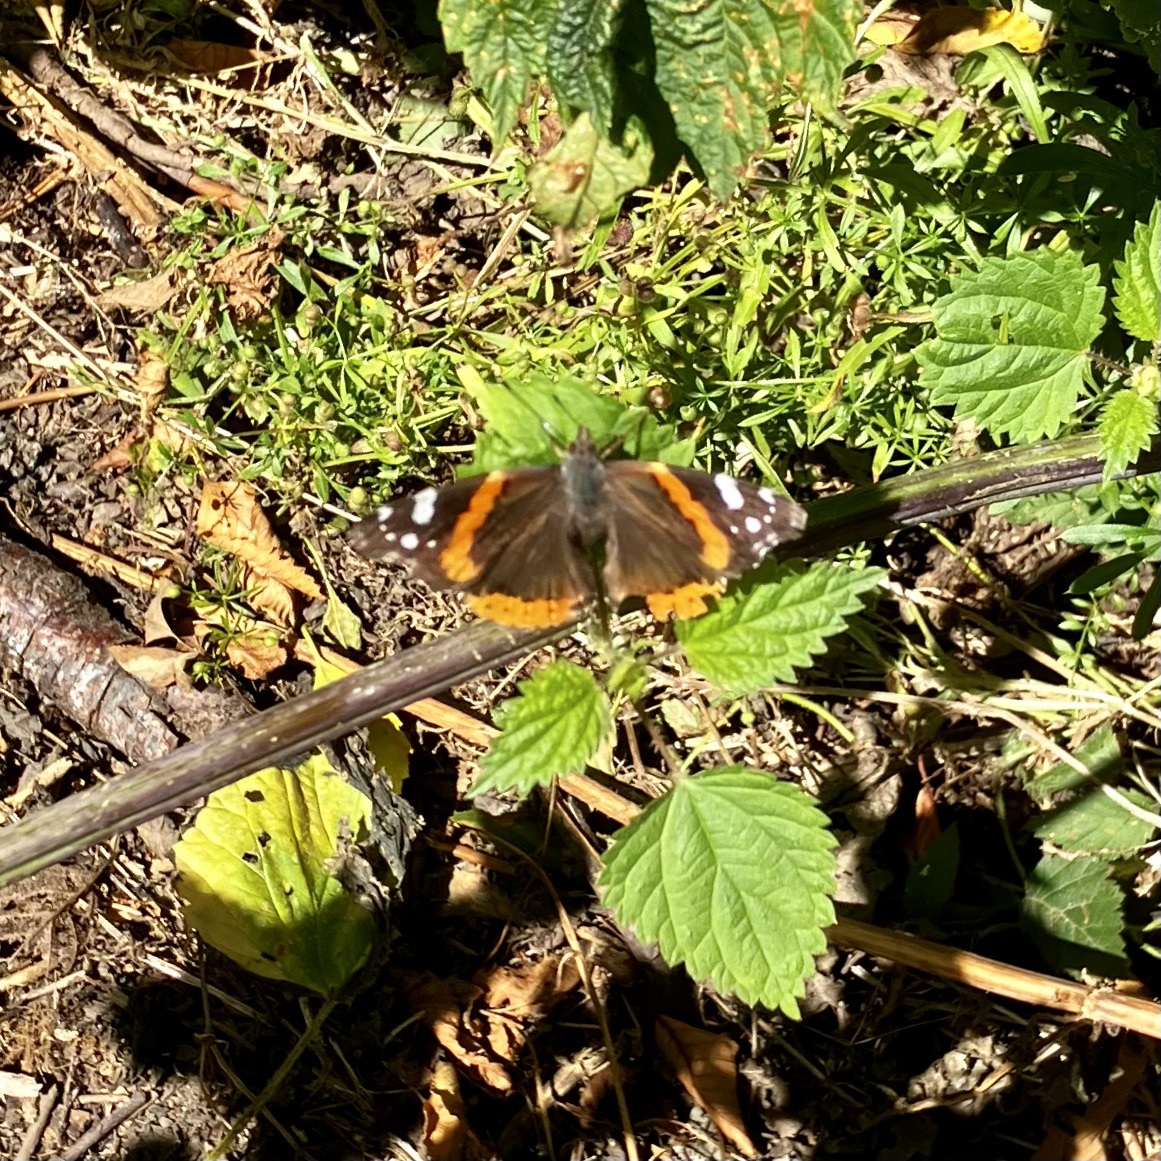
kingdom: Animalia
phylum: Arthropoda
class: Insecta
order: Lepidoptera
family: Nymphalidae
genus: Vanessa
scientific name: Vanessa atalanta
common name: Red admiral
